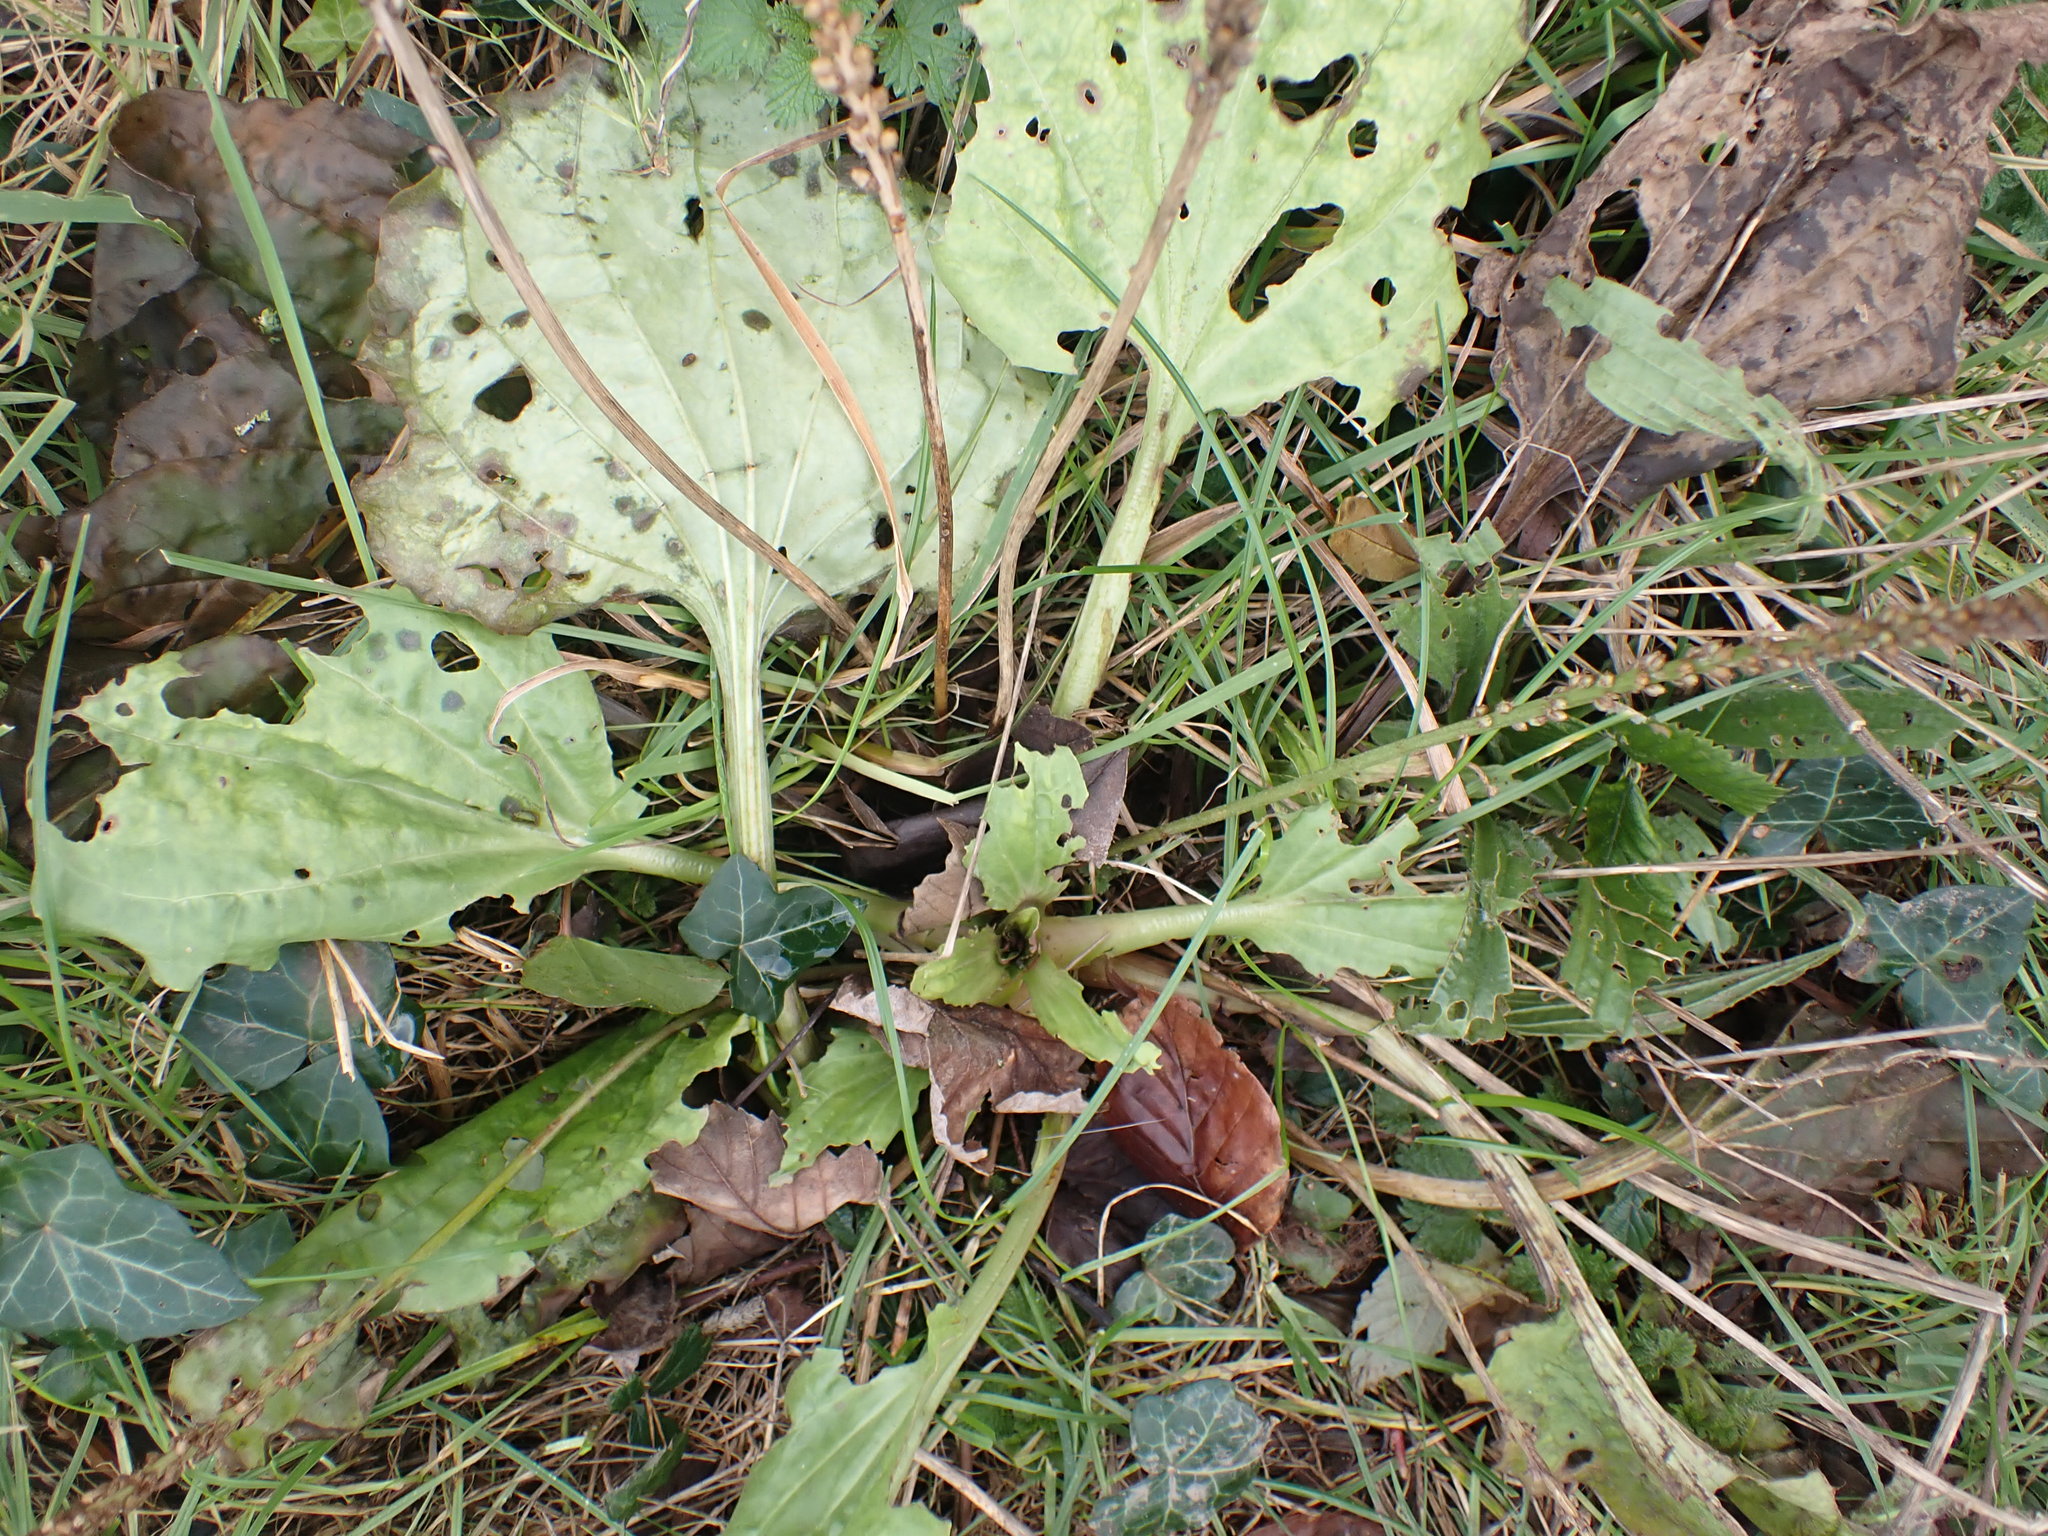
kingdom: Plantae
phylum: Tracheophyta
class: Magnoliopsida
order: Lamiales
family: Plantaginaceae
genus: Plantago
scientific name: Plantago major
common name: Common plantain
